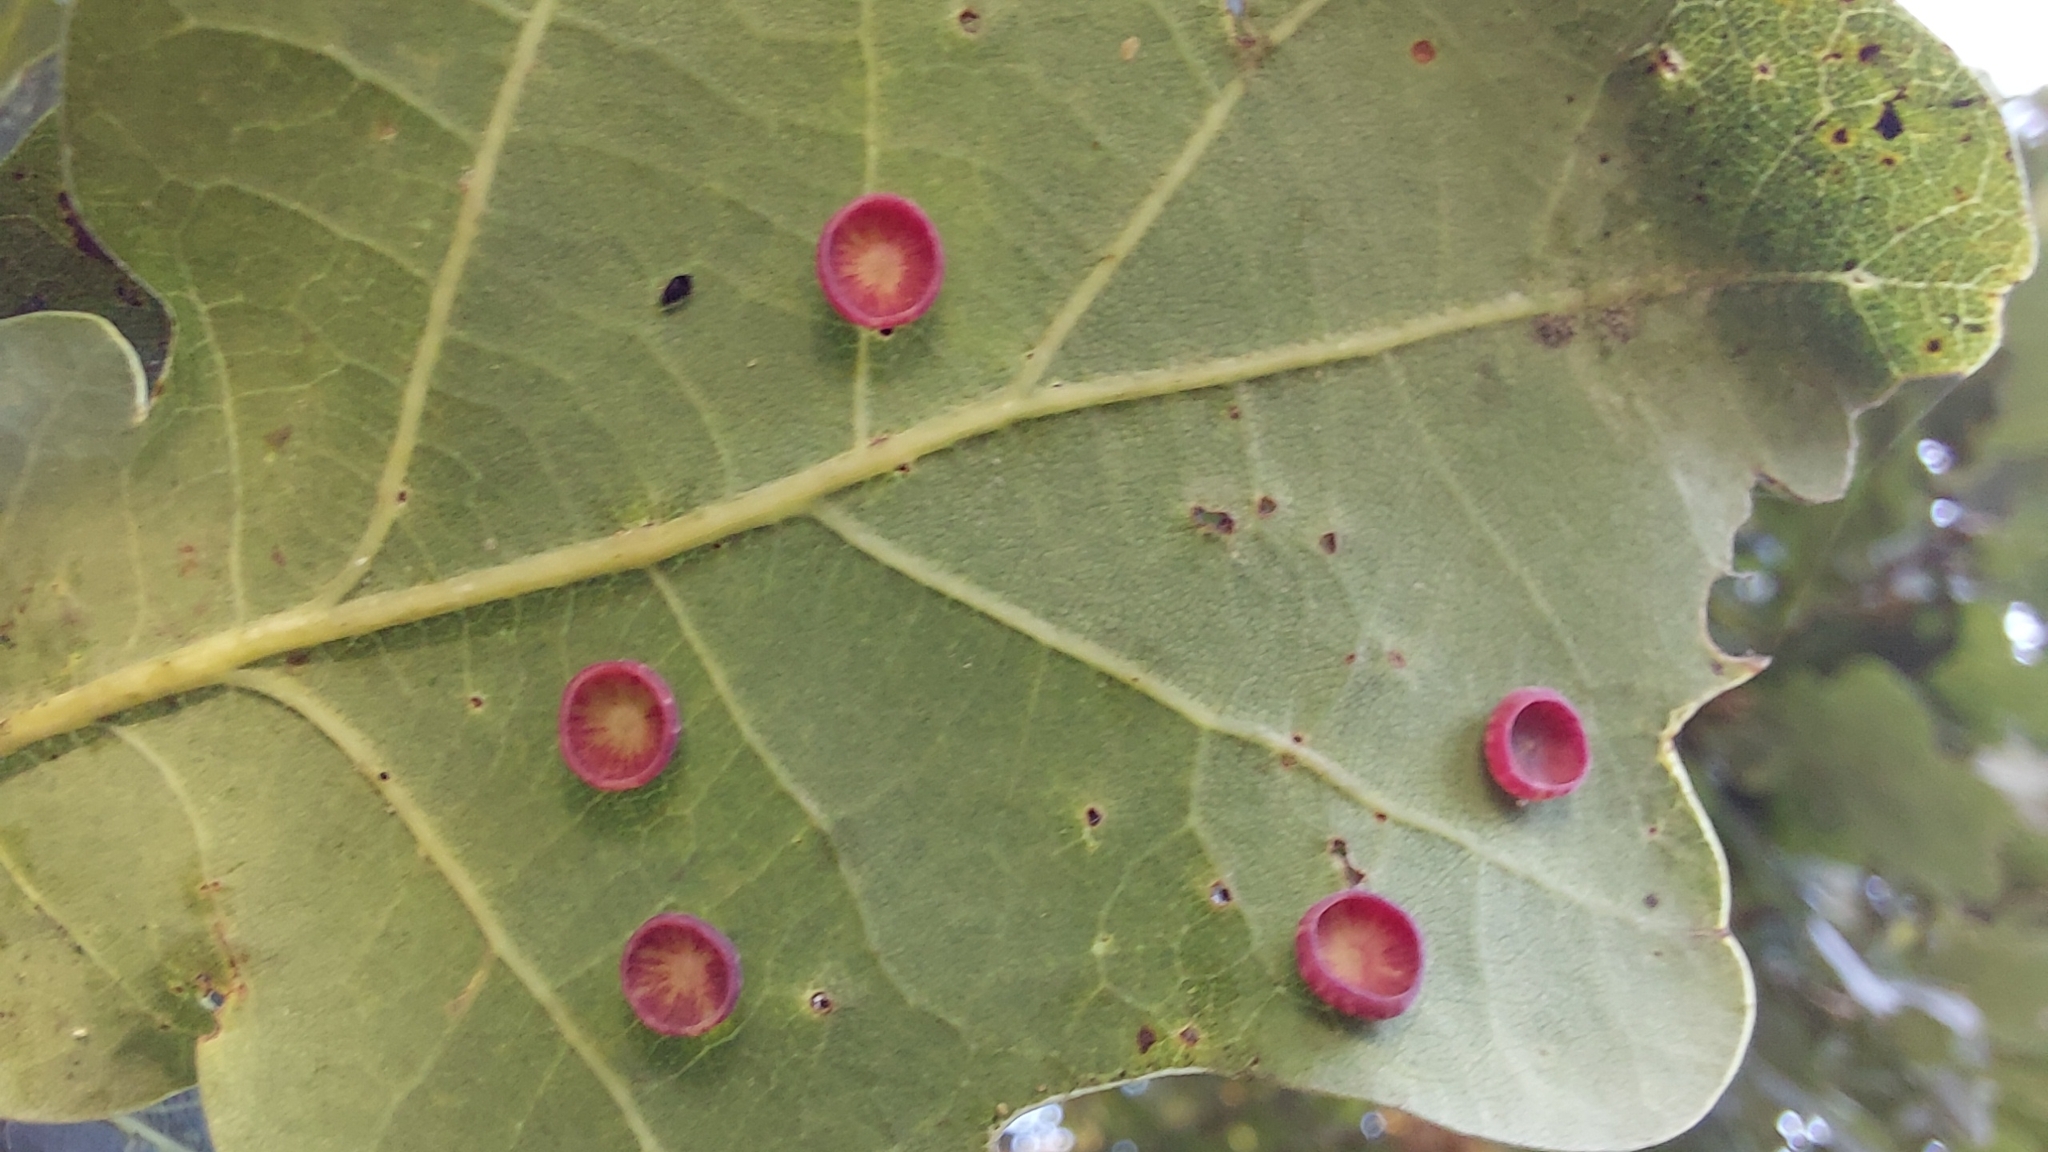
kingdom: Animalia
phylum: Arthropoda
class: Insecta
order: Hymenoptera
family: Cynipidae
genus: Neuroterus
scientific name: Neuroterus albipes
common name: Smooth spangle gall
